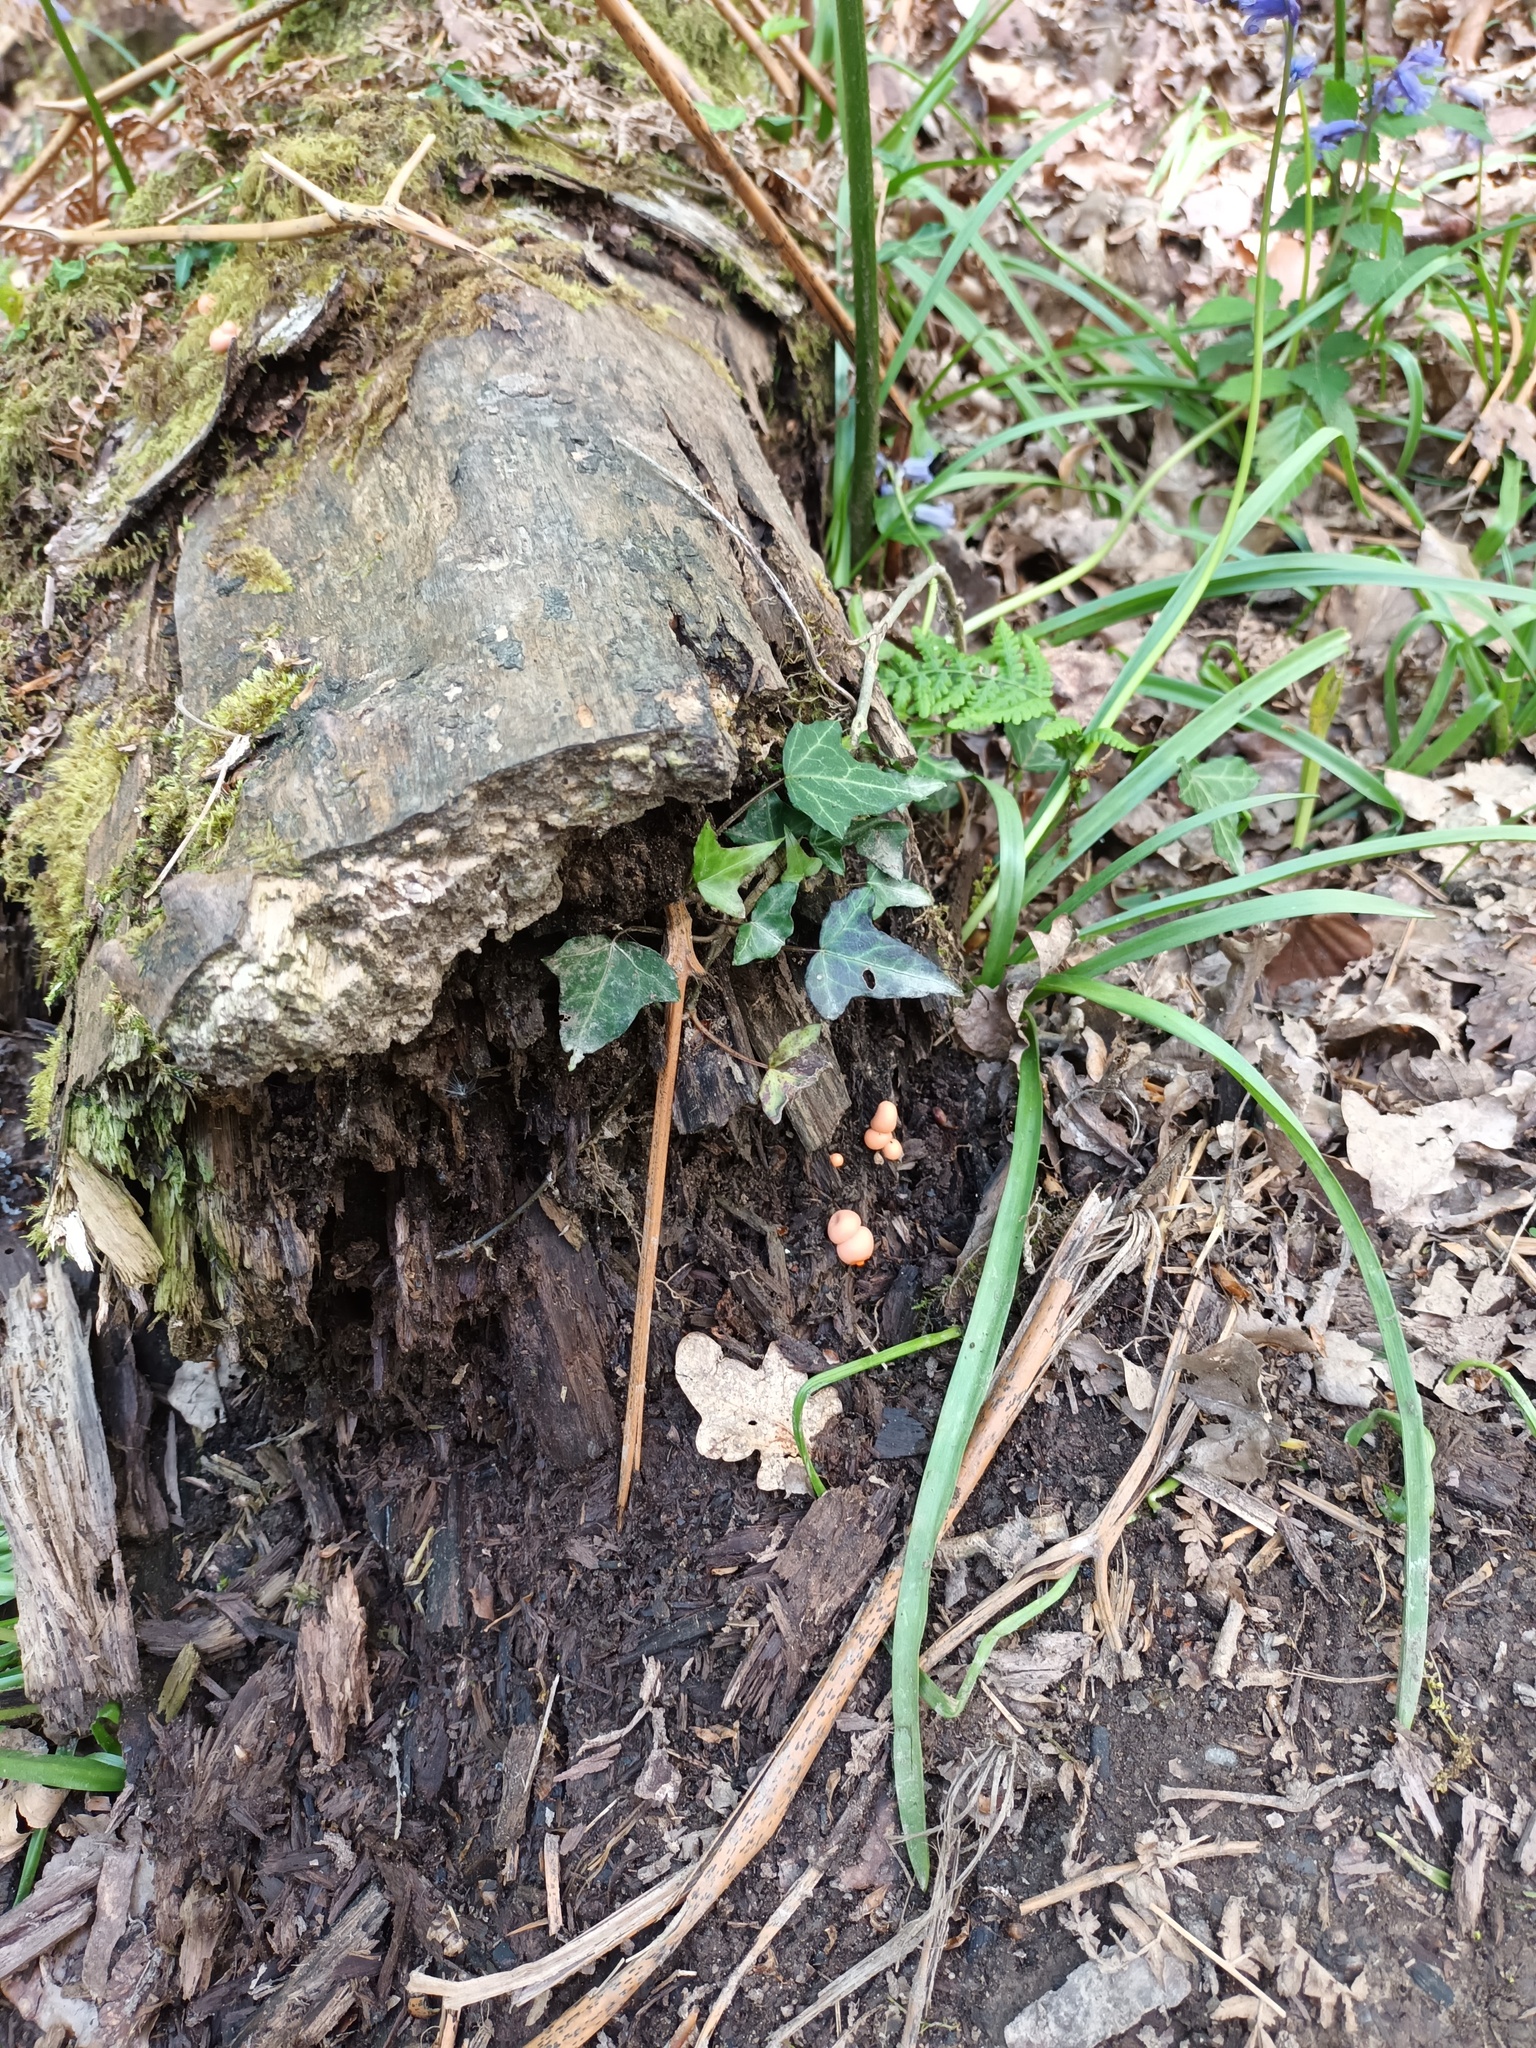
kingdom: Protozoa
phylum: Mycetozoa
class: Myxomycetes
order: Cribrariales
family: Tubiferaceae
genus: Lycogala
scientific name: Lycogala epidendrum
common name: Wolf's milk
